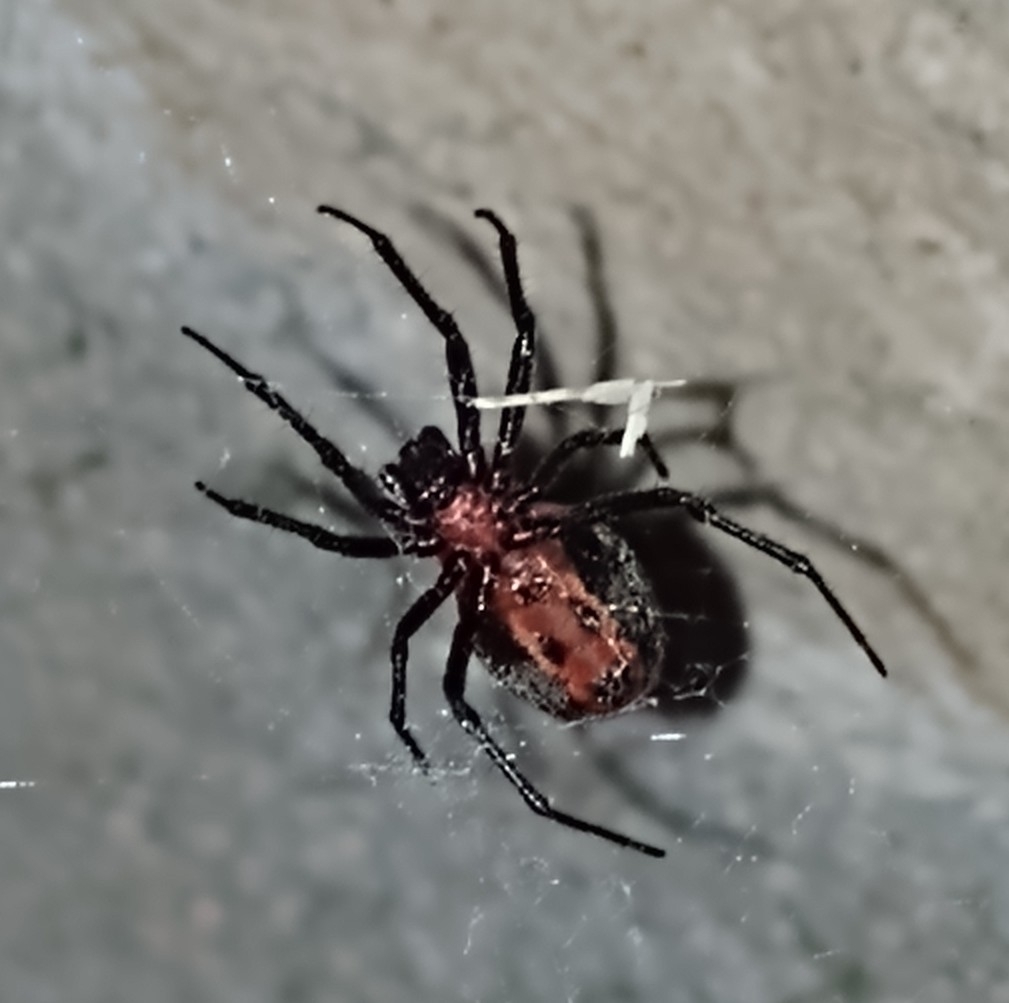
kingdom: Animalia
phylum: Arthropoda
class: Arachnida
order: Araneae
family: Araneidae
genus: Alpaida
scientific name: Alpaida carminea
